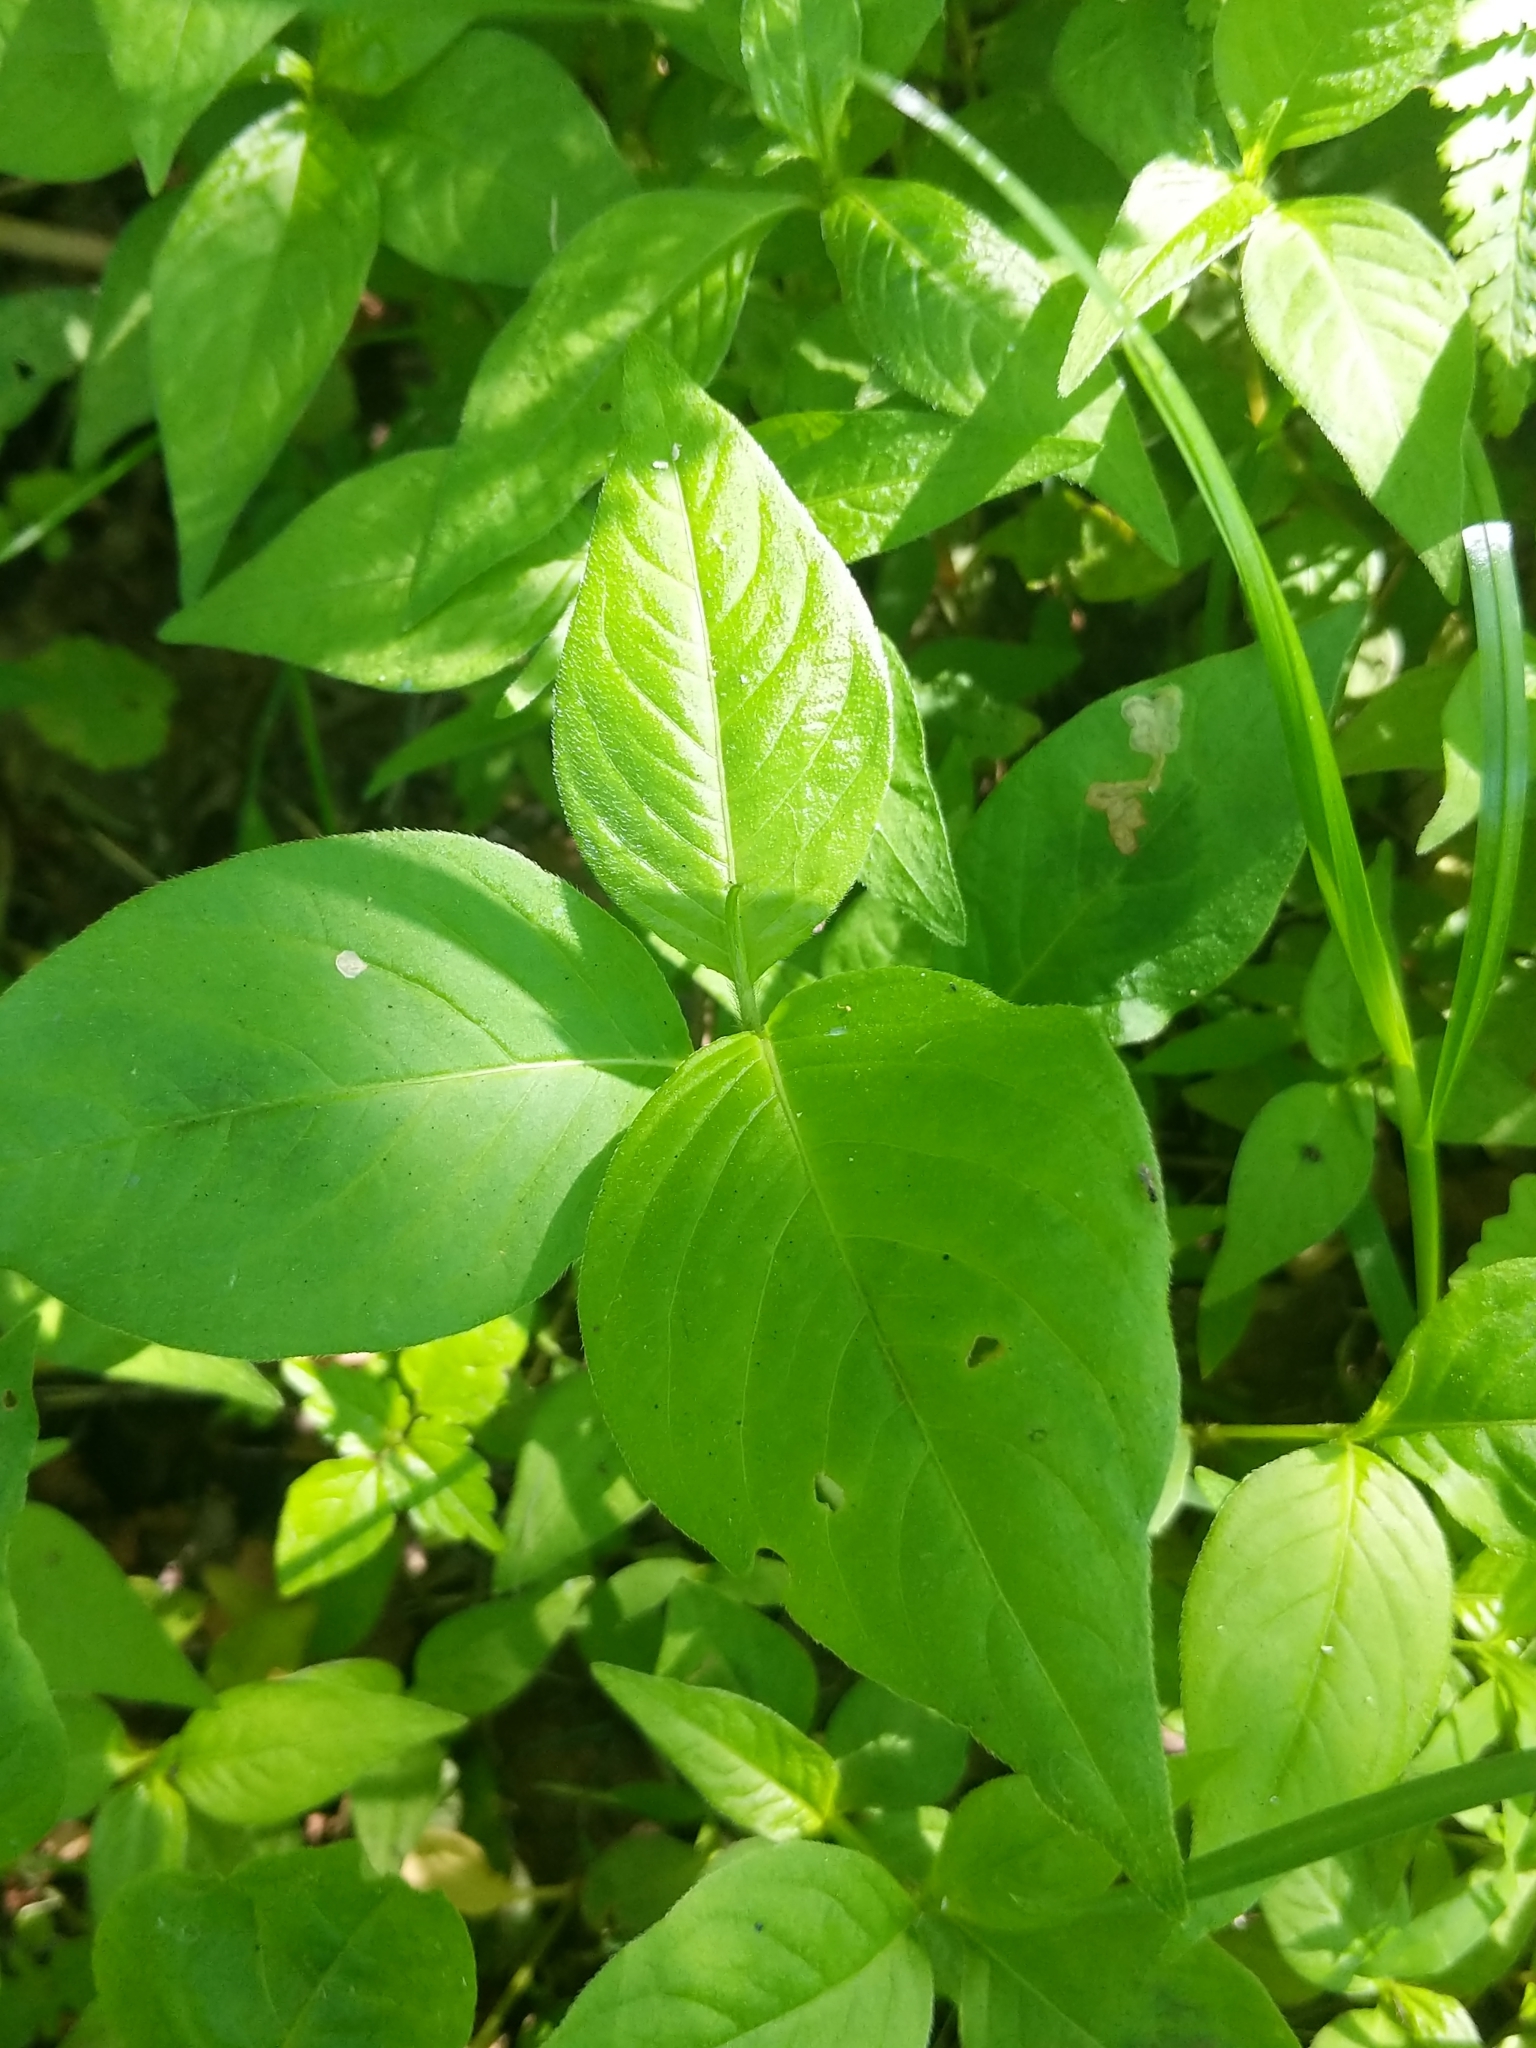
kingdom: Plantae
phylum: Tracheophyta
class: Magnoliopsida
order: Caryophyllales
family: Polygonaceae
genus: Persicaria
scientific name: Persicaria virginiana
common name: Jumpseed
